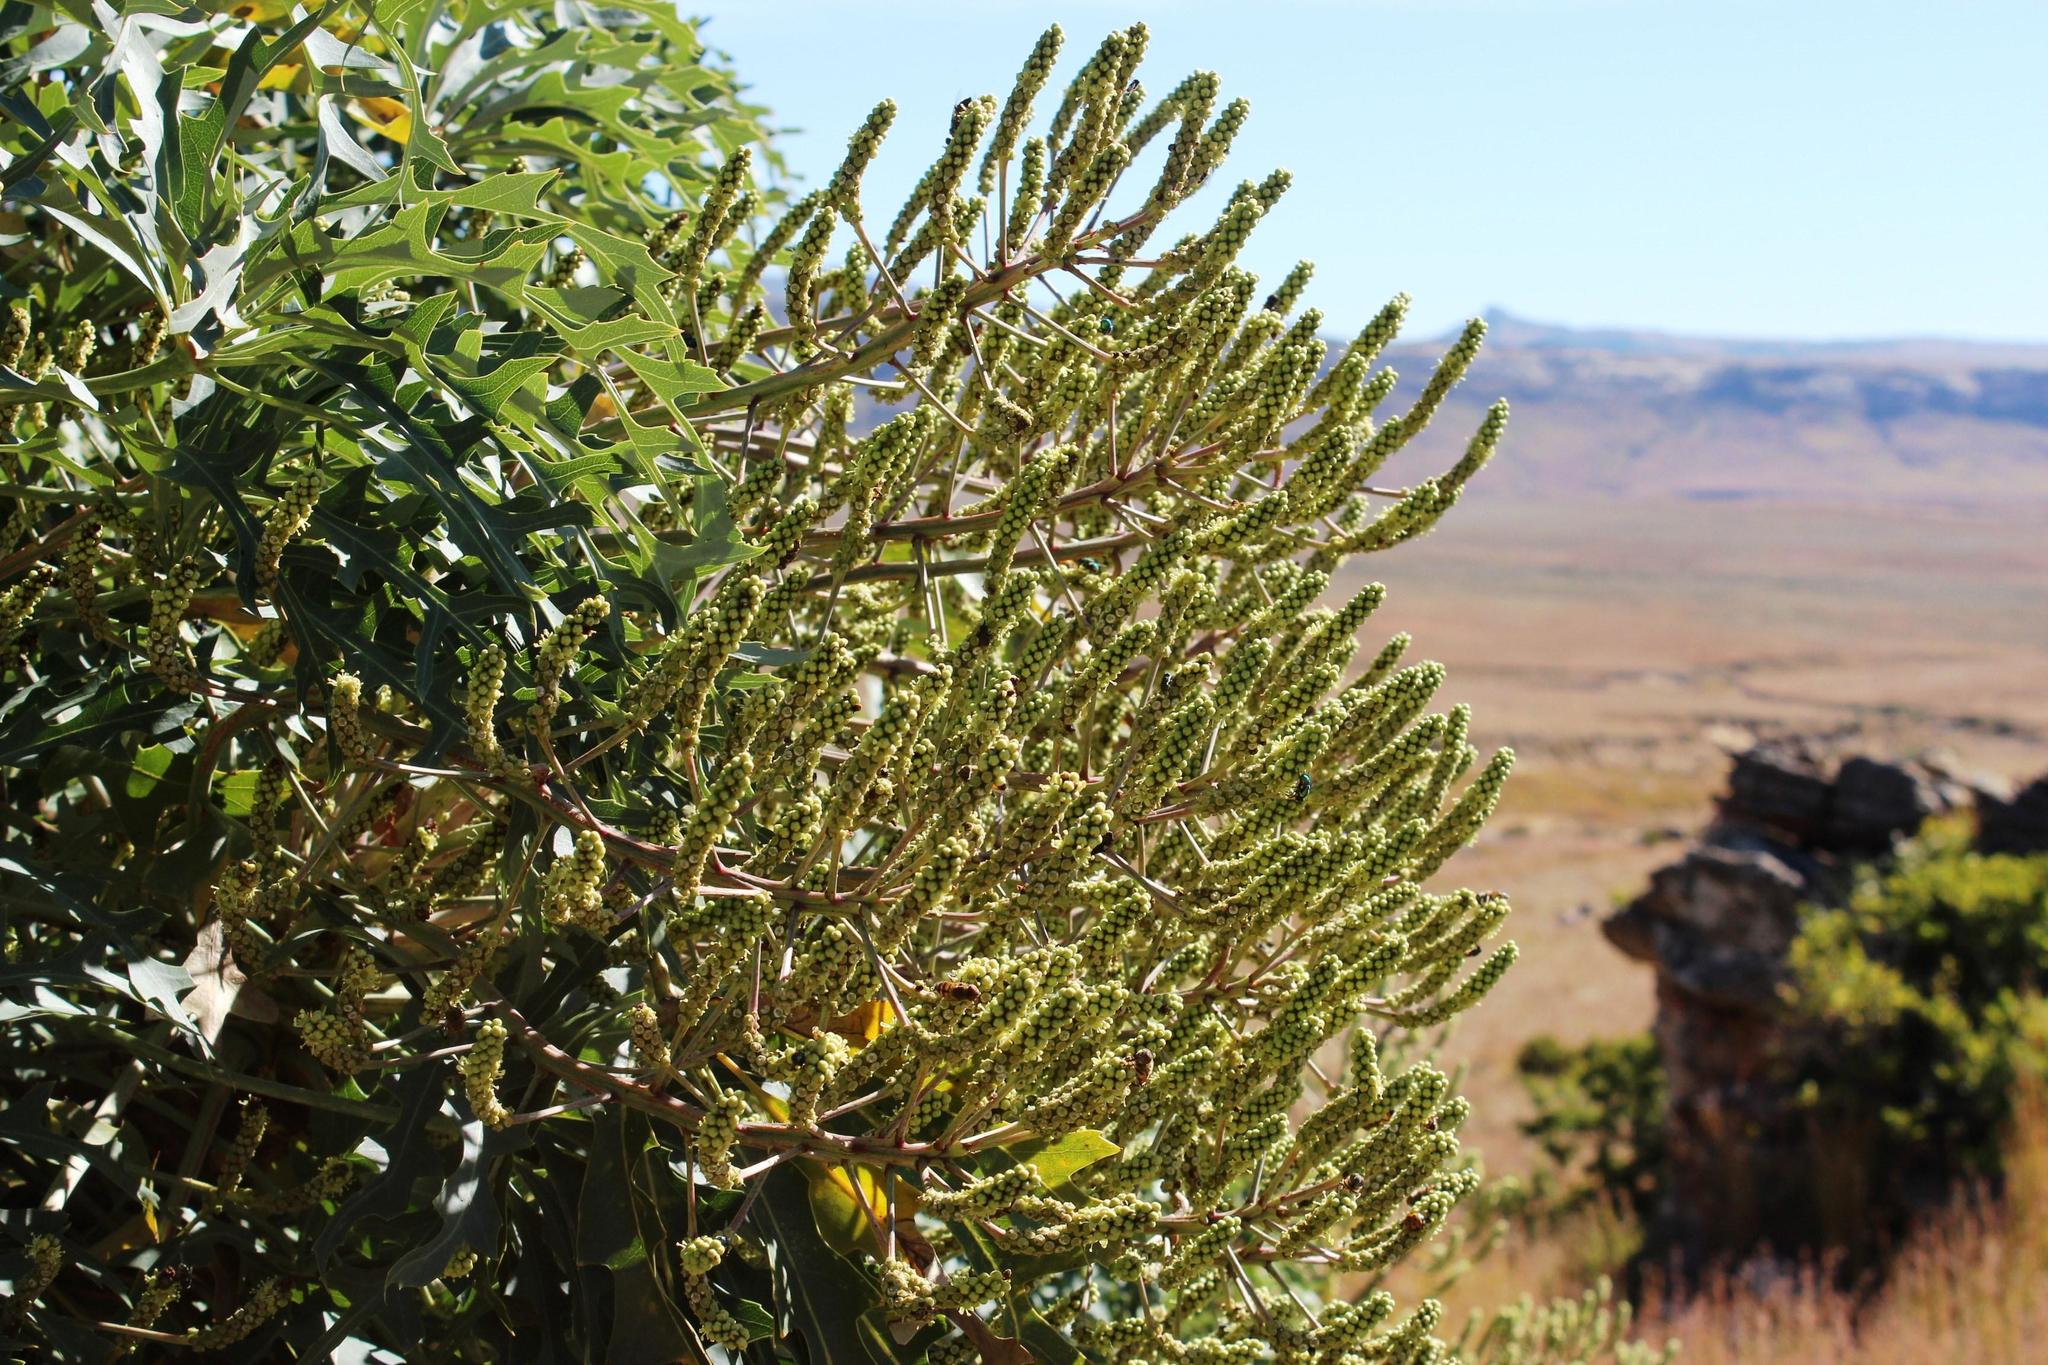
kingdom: Plantae
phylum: Tracheophyta
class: Magnoliopsida
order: Apiales
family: Araliaceae
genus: Cussonia
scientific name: Cussonia paniculata
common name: Cabbagetree
